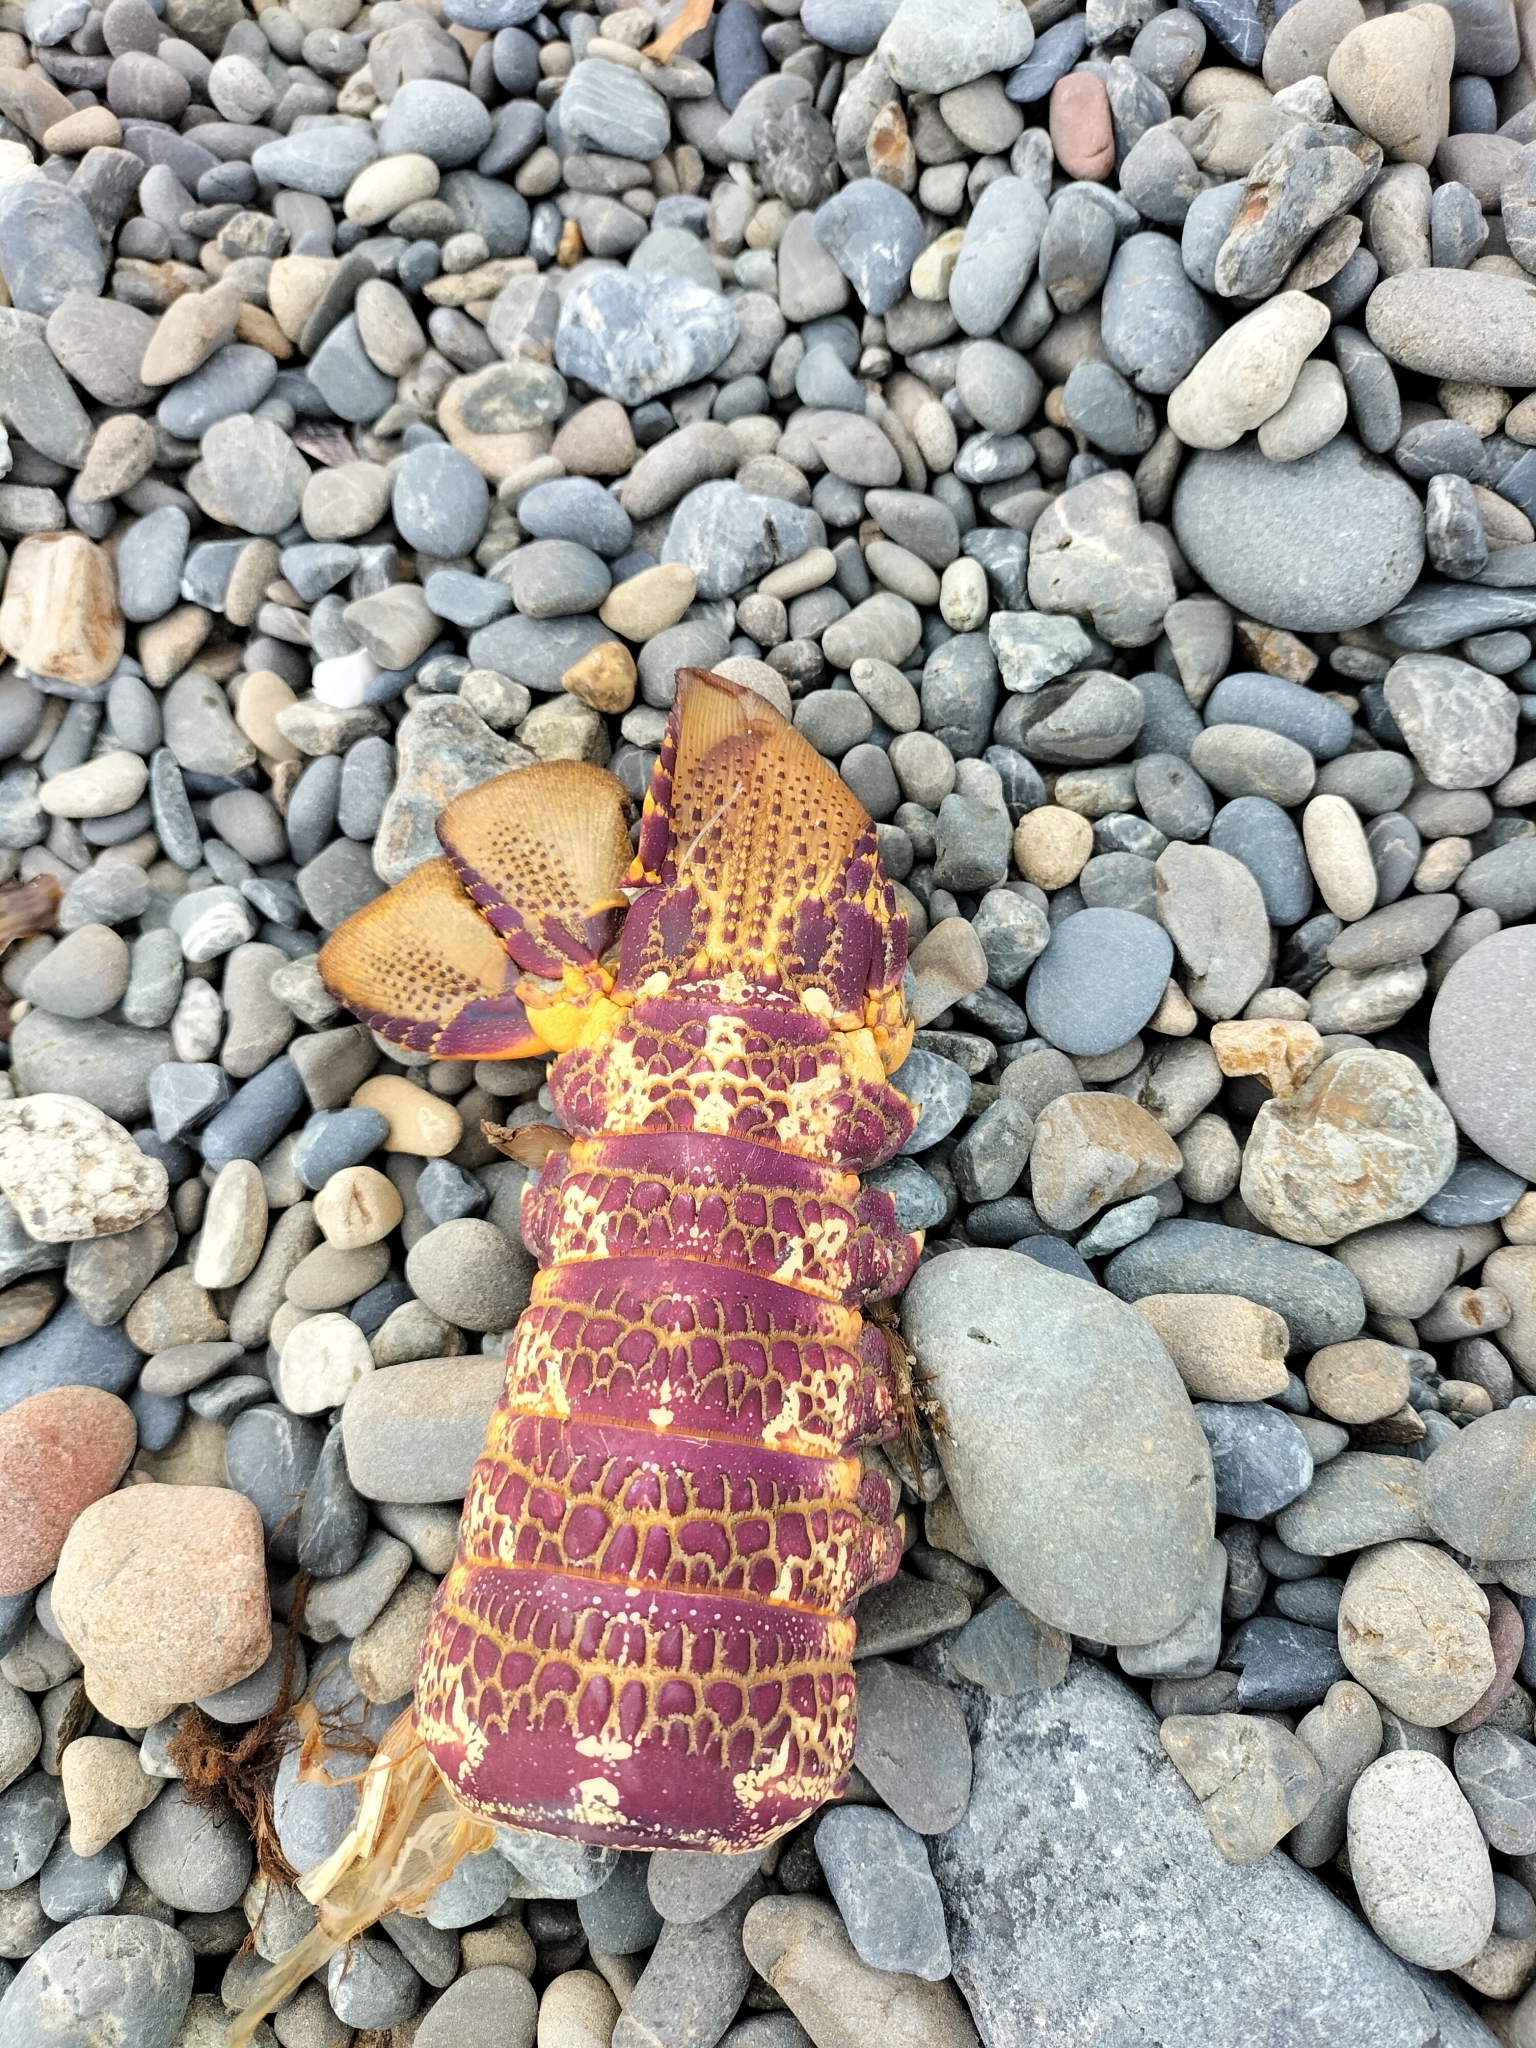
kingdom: Animalia
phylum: Arthropoda
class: Malacostraca
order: Decapoda
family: Palinuridae
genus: Jasus
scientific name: Jasus edwardsii
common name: Red rock lobster
